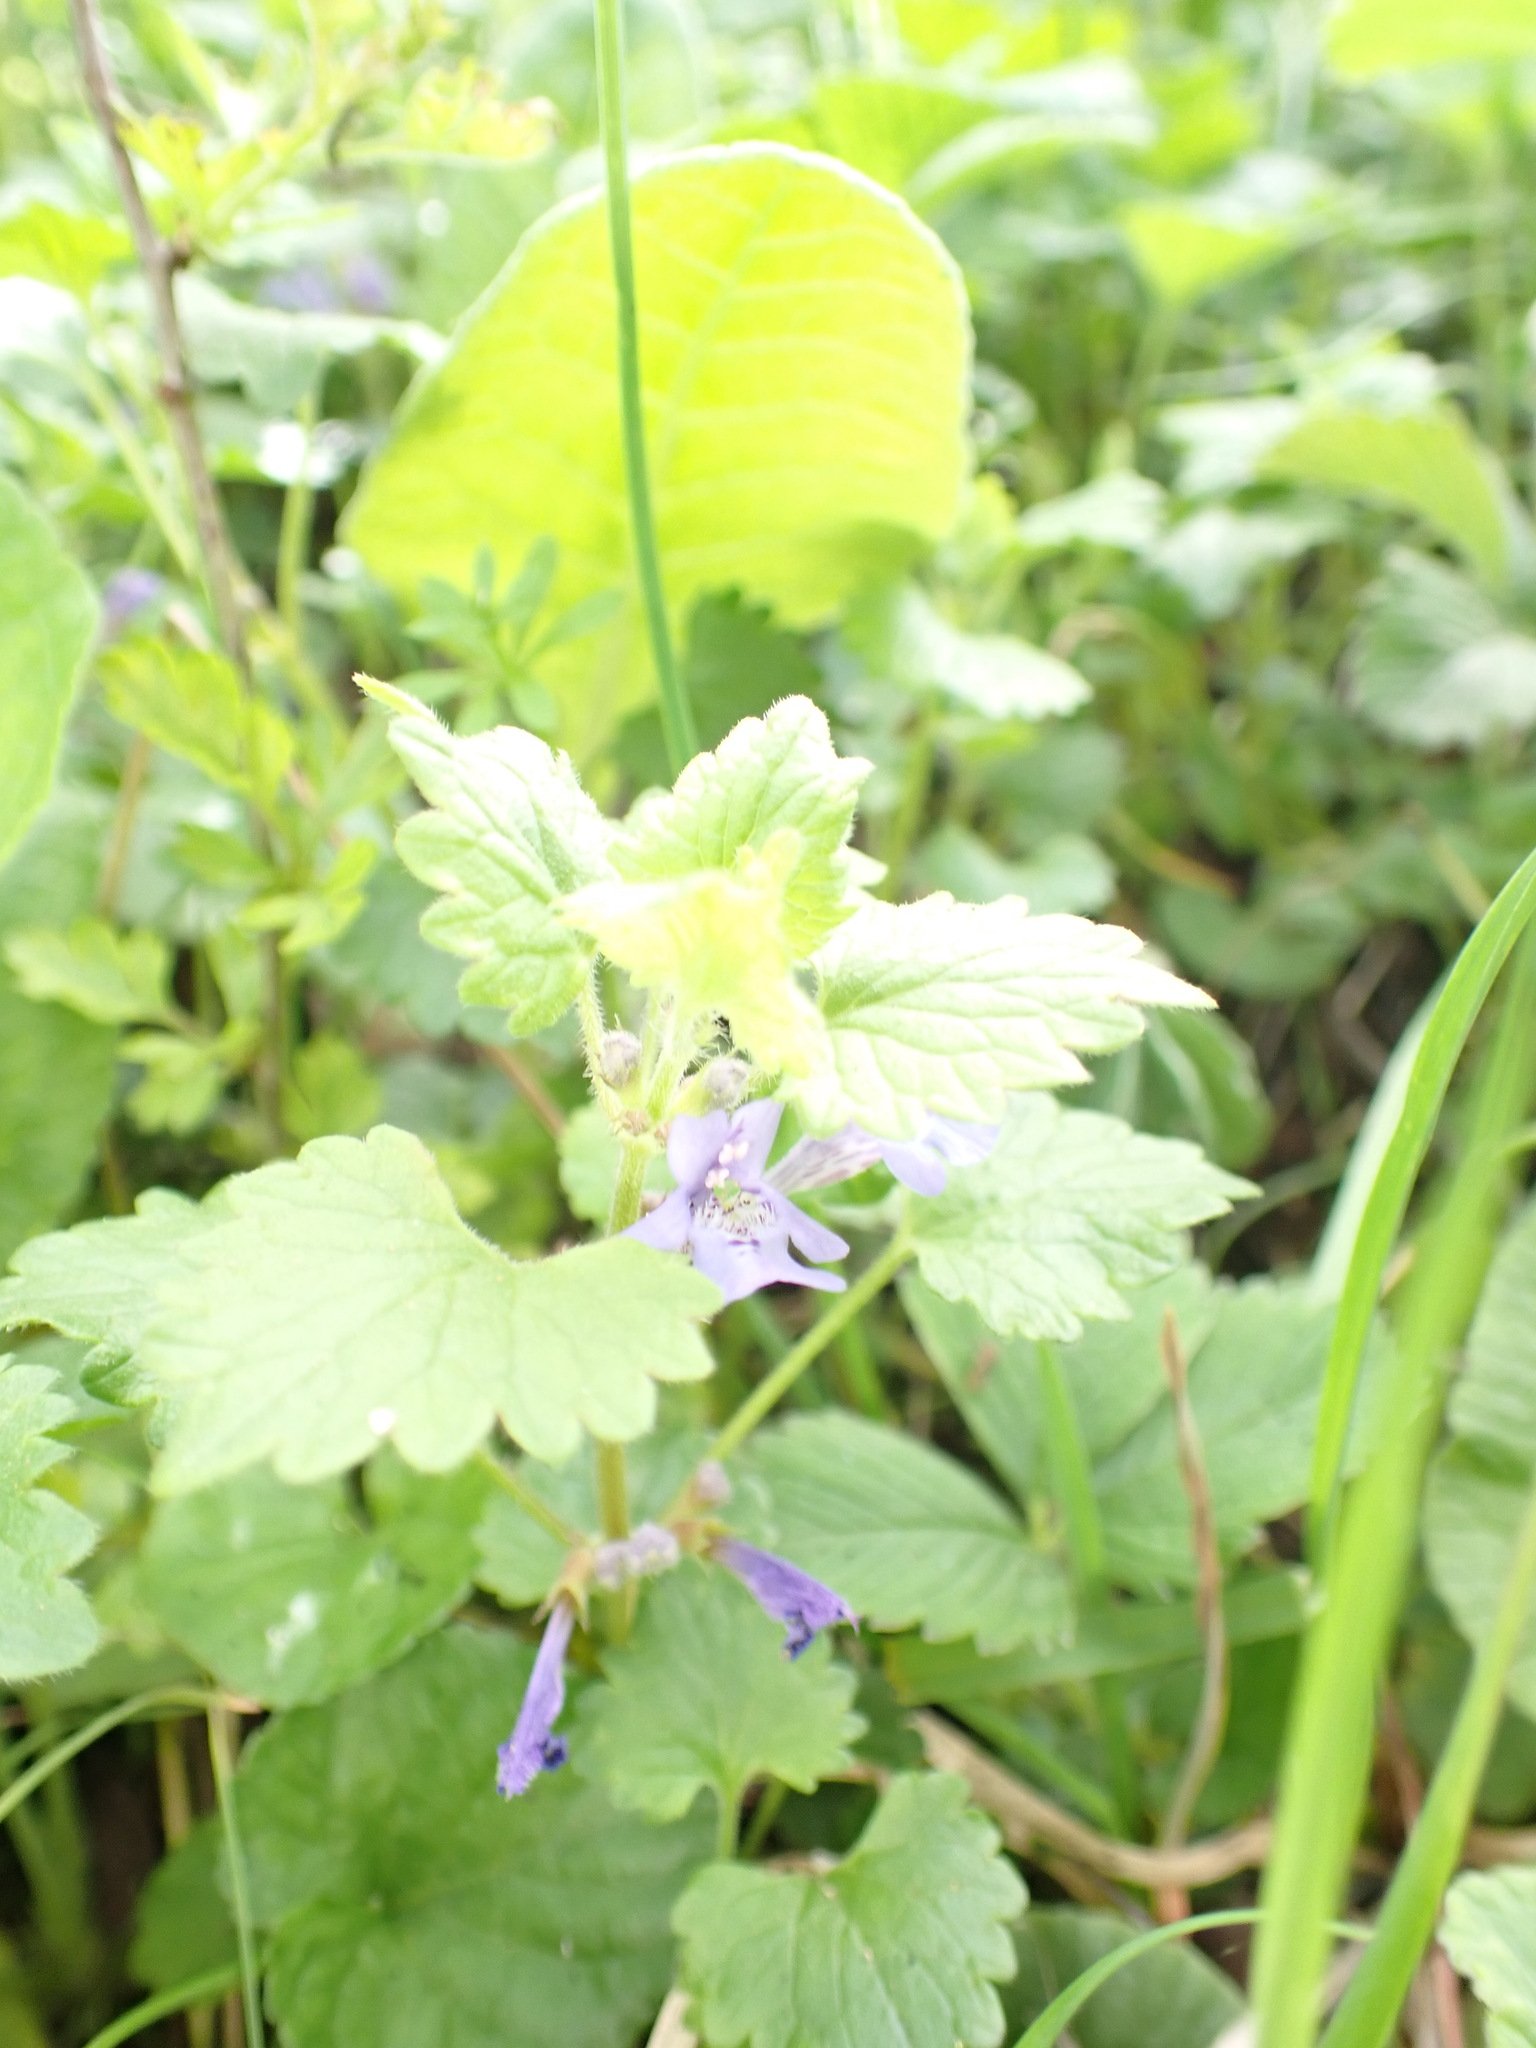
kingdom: Plantae
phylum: Tracheophyta
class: Magnoliopsida
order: Lamiales
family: Lamiaceae
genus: Glechoma
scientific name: Glechoma hederacea
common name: Ground ivy
